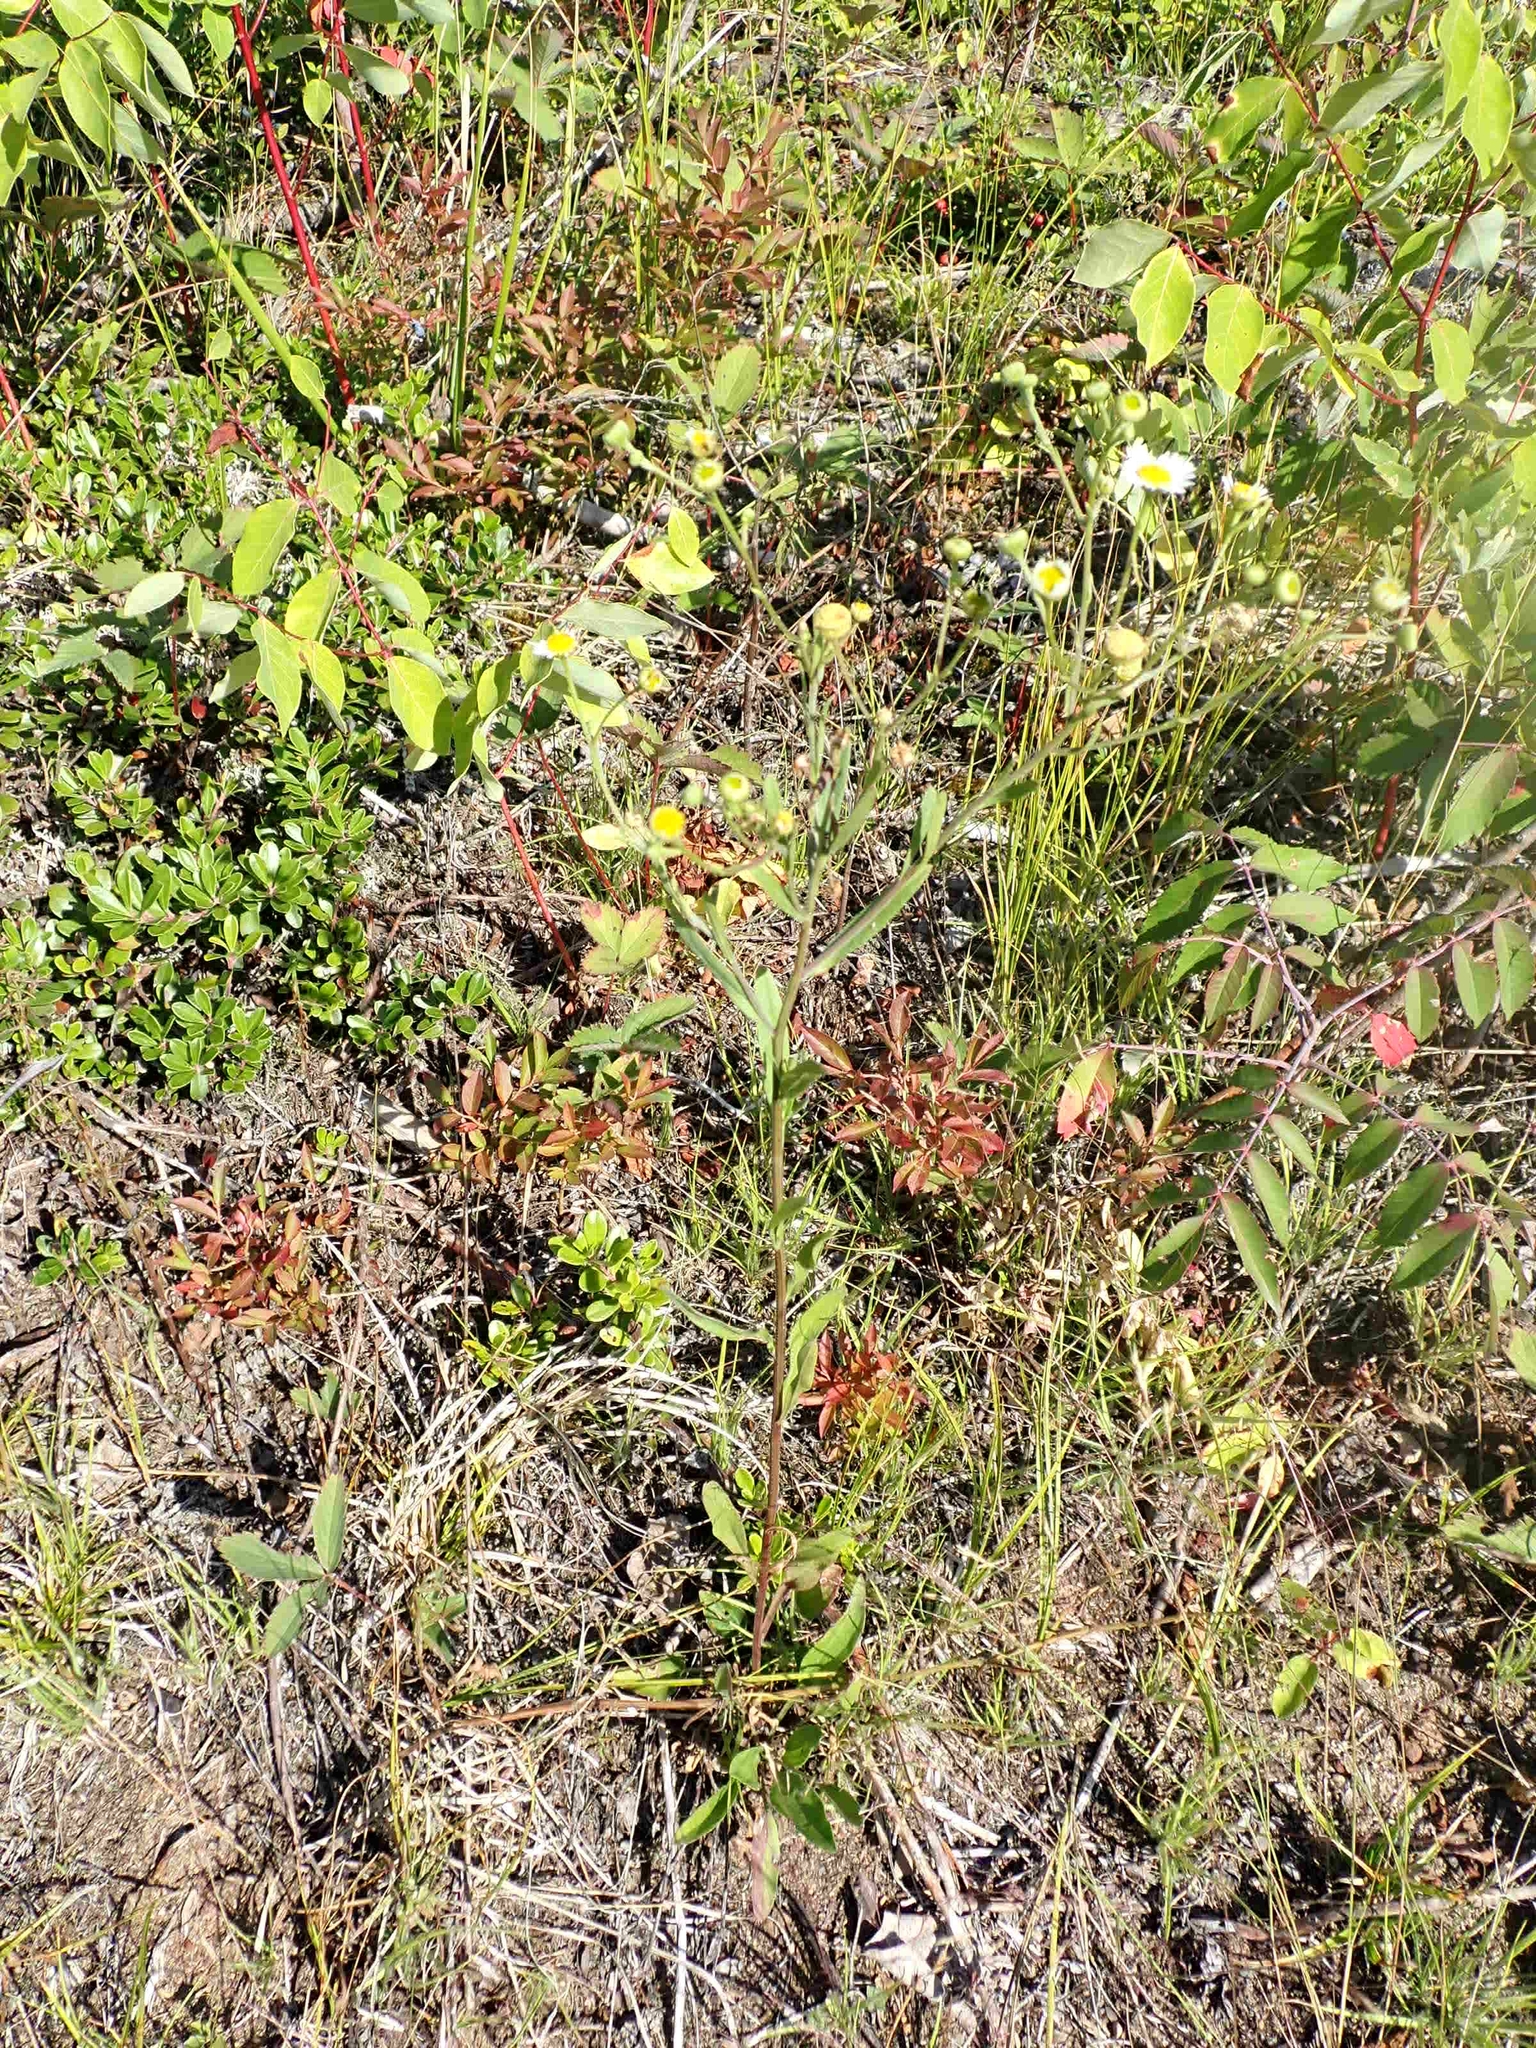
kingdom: Plantae
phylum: Tracheophyta
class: Magnoliopsida
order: Asterales
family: Asteraceae
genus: Erigeron
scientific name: Erigeron strigosus
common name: Common eastern fleabane
